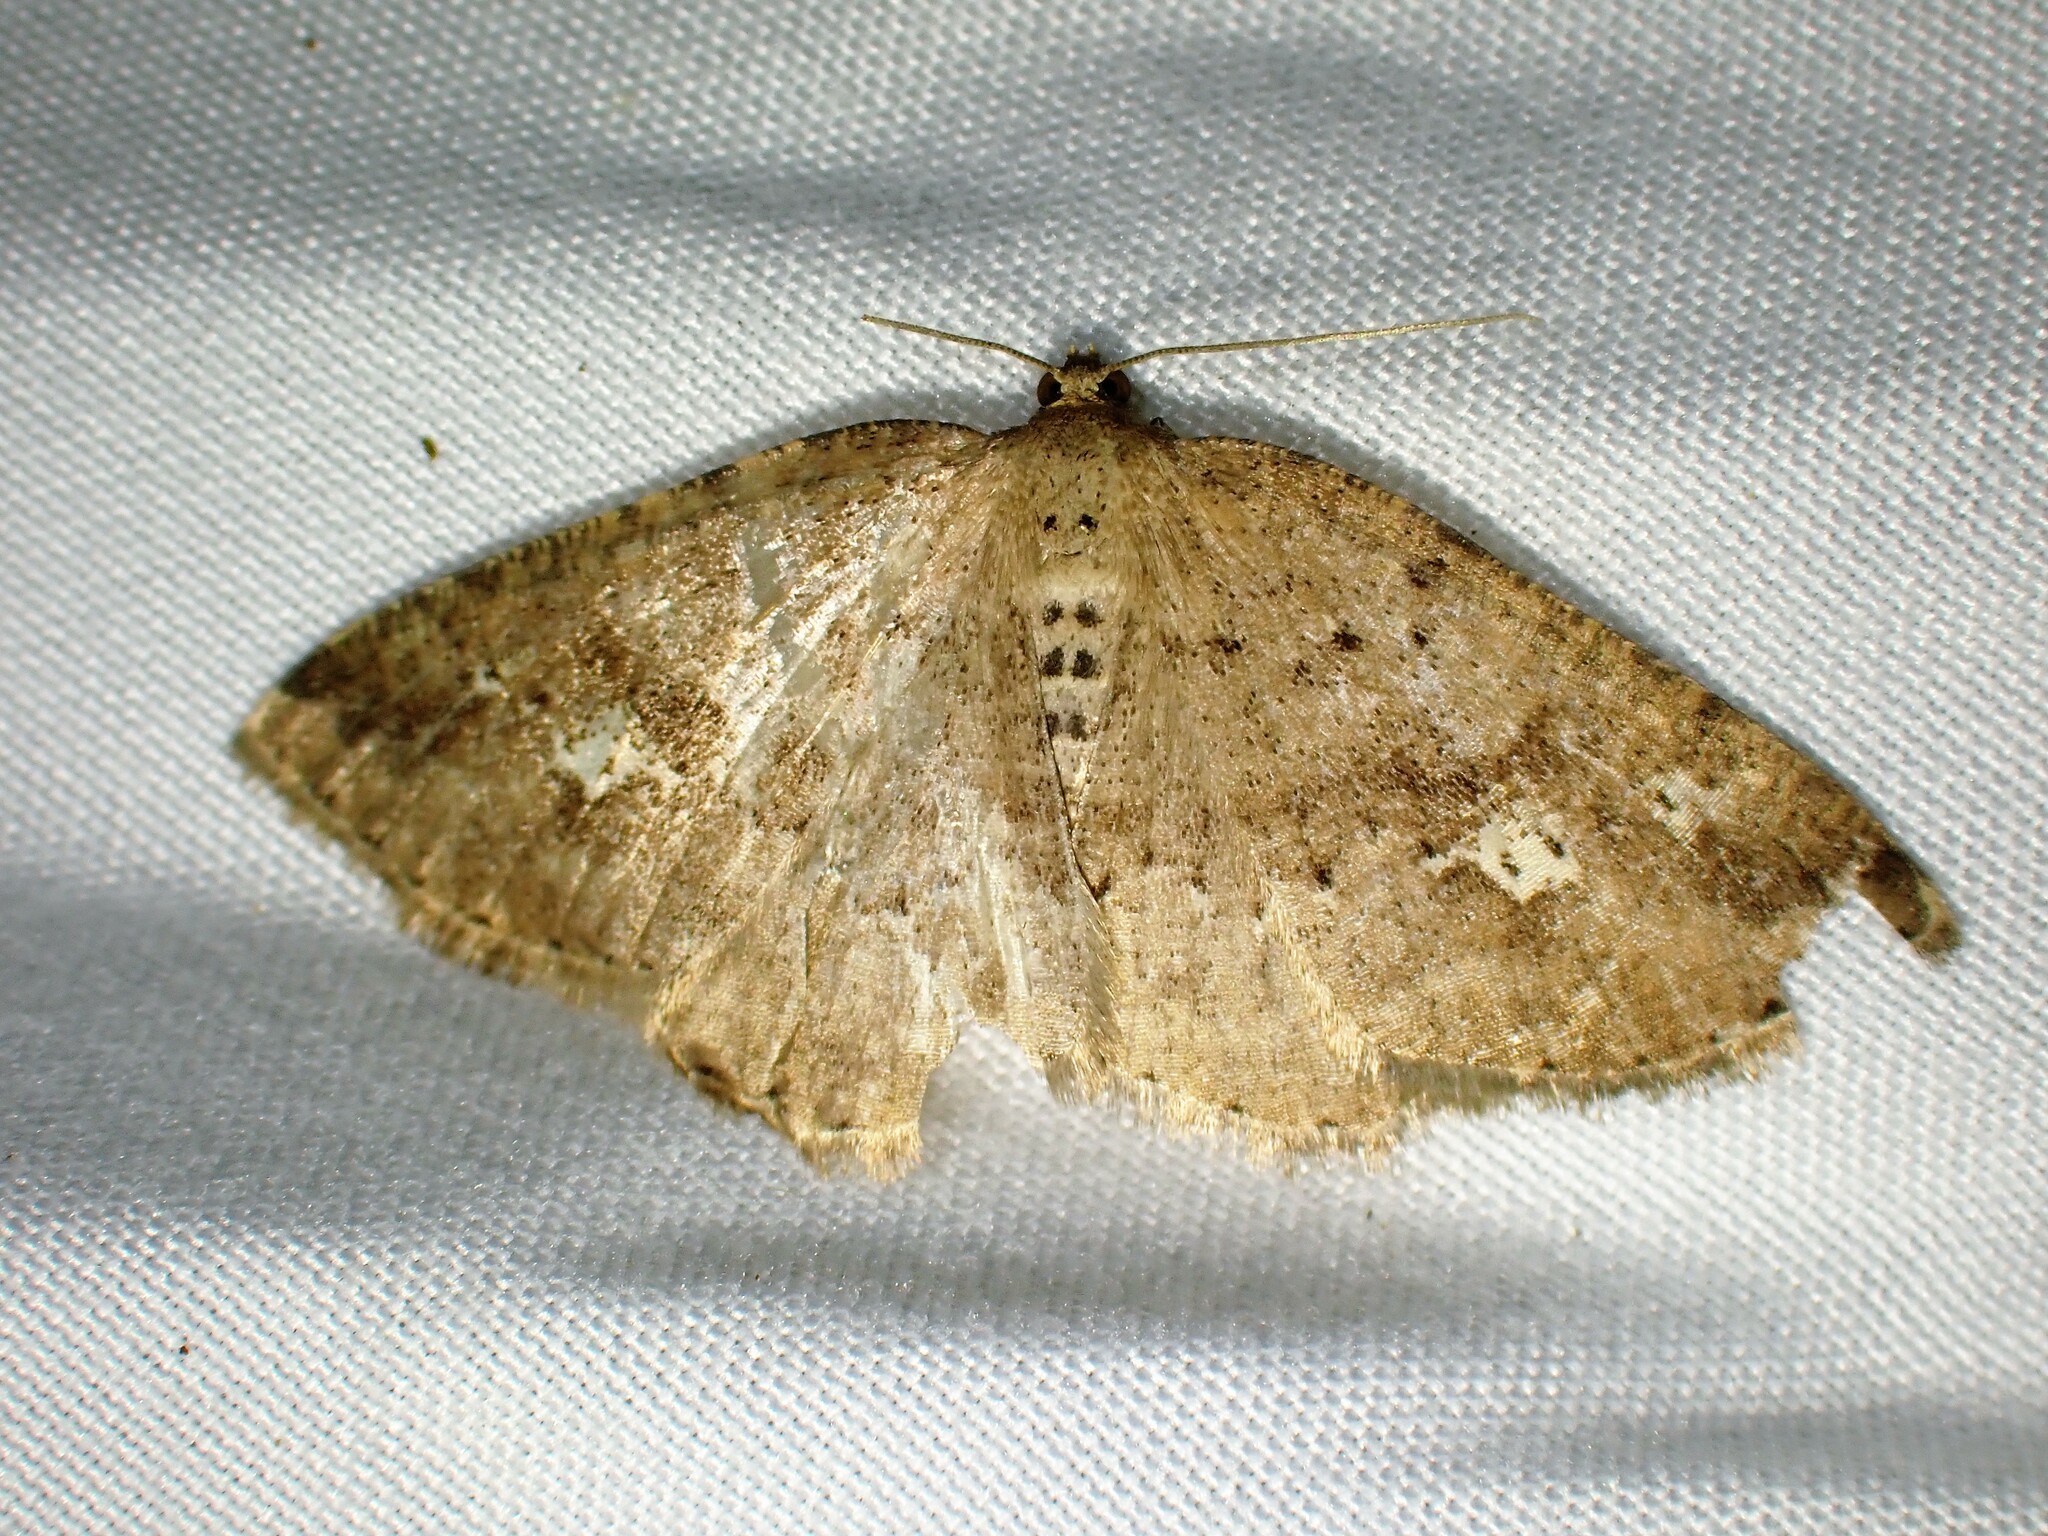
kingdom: Animalia
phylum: Arthropoda
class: Insecta
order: Lepidoptera
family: Geometridae
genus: Homochlodes
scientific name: Homochlodes fritillaria
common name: Pale homochlodes
